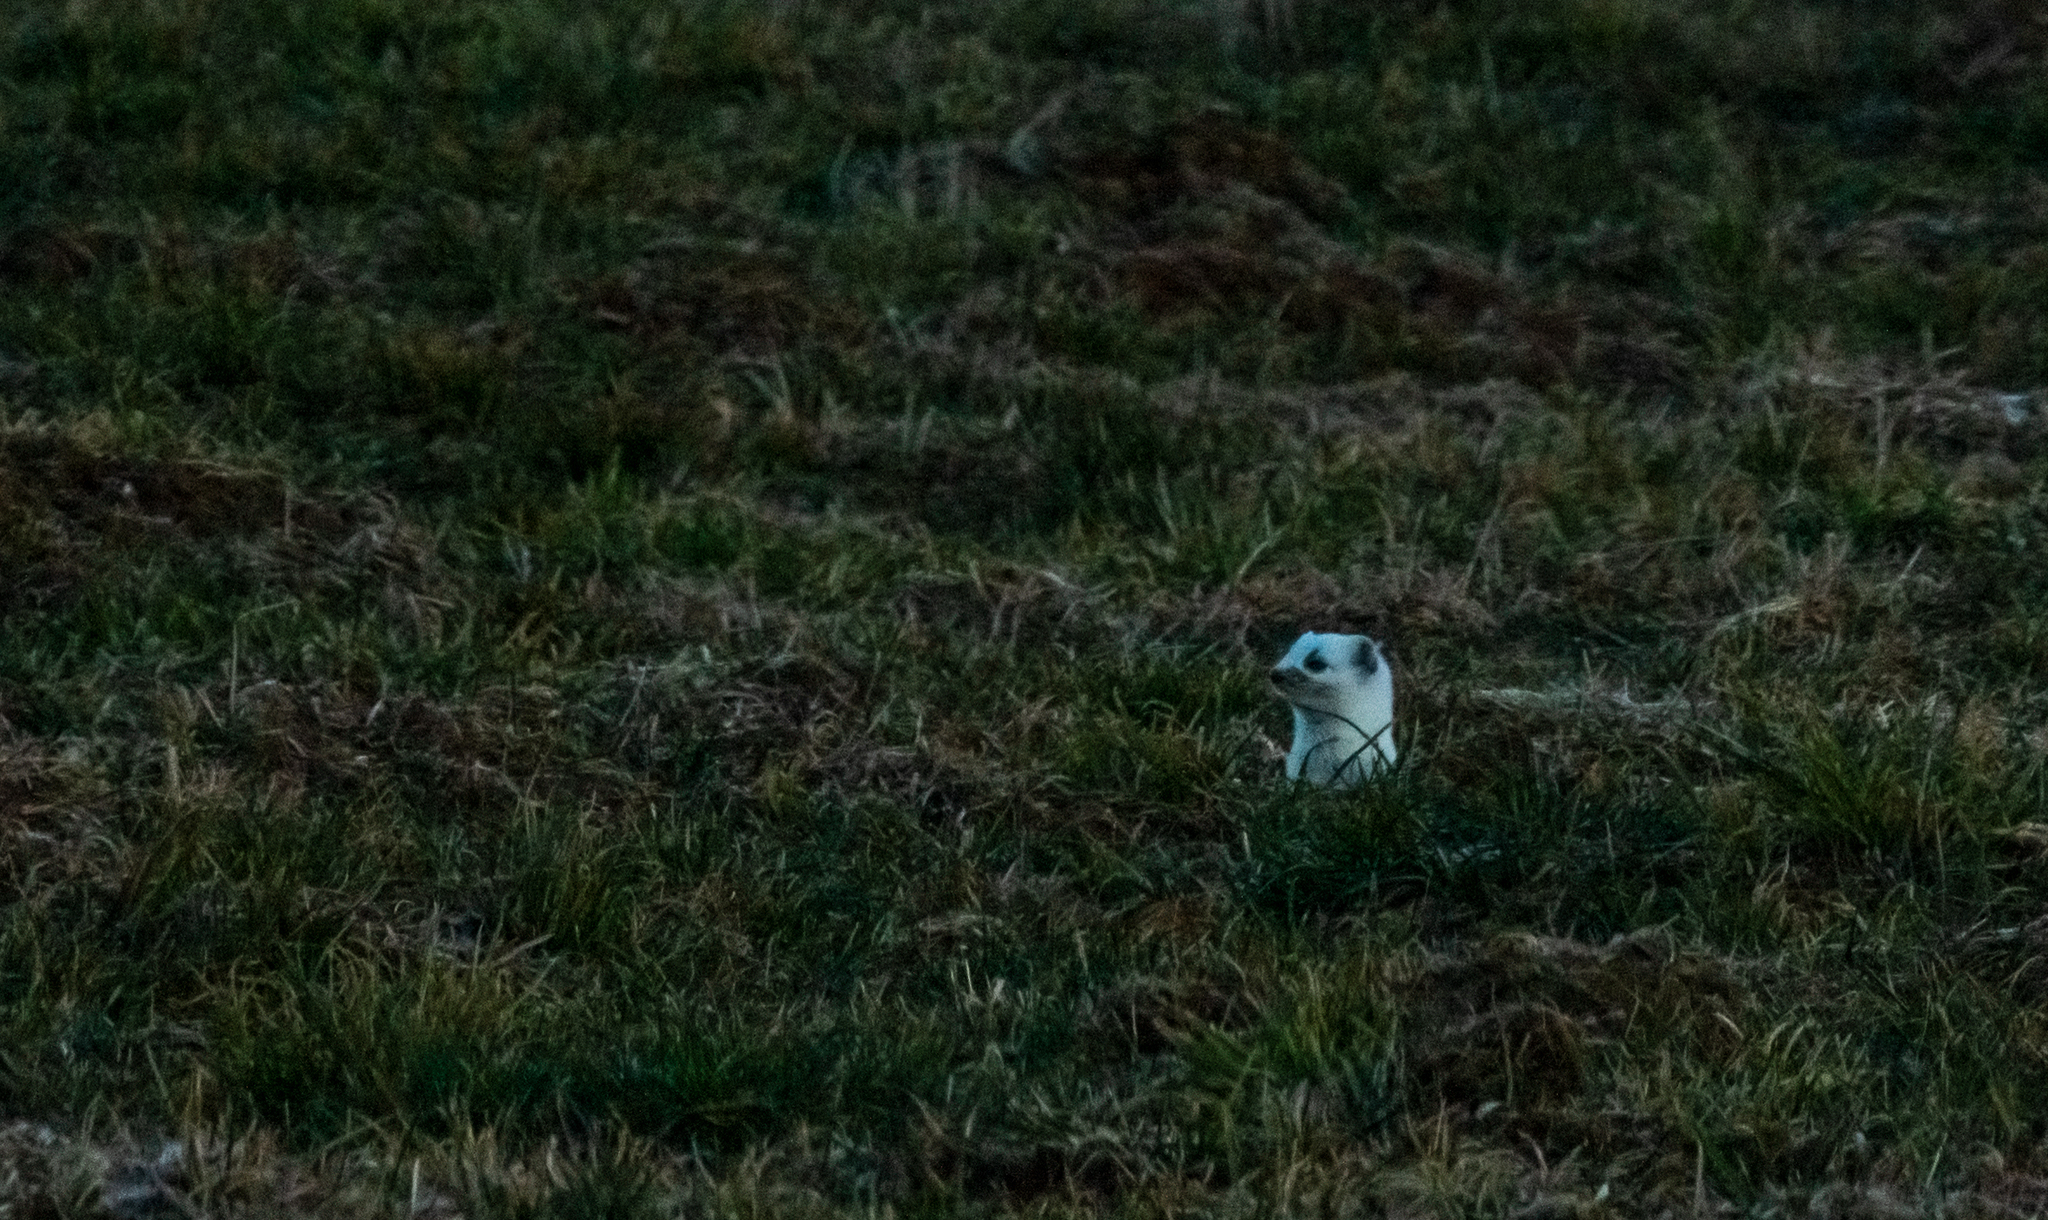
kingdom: Animalia
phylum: Chordata
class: Mammalia
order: Carnivora
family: Mustelidae
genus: Mustela
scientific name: Mustela erminea
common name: Stoat
